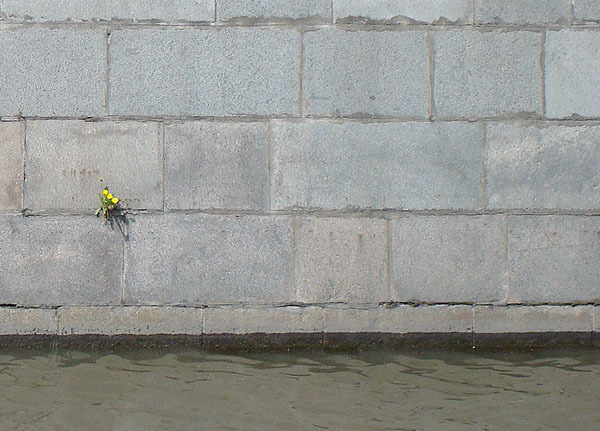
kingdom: Plantae
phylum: Tracheophyta
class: Magnoliopsida
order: Asterales
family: Asteraceae
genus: Taraxacum
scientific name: Taraxacum officinale
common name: Common dandelion
